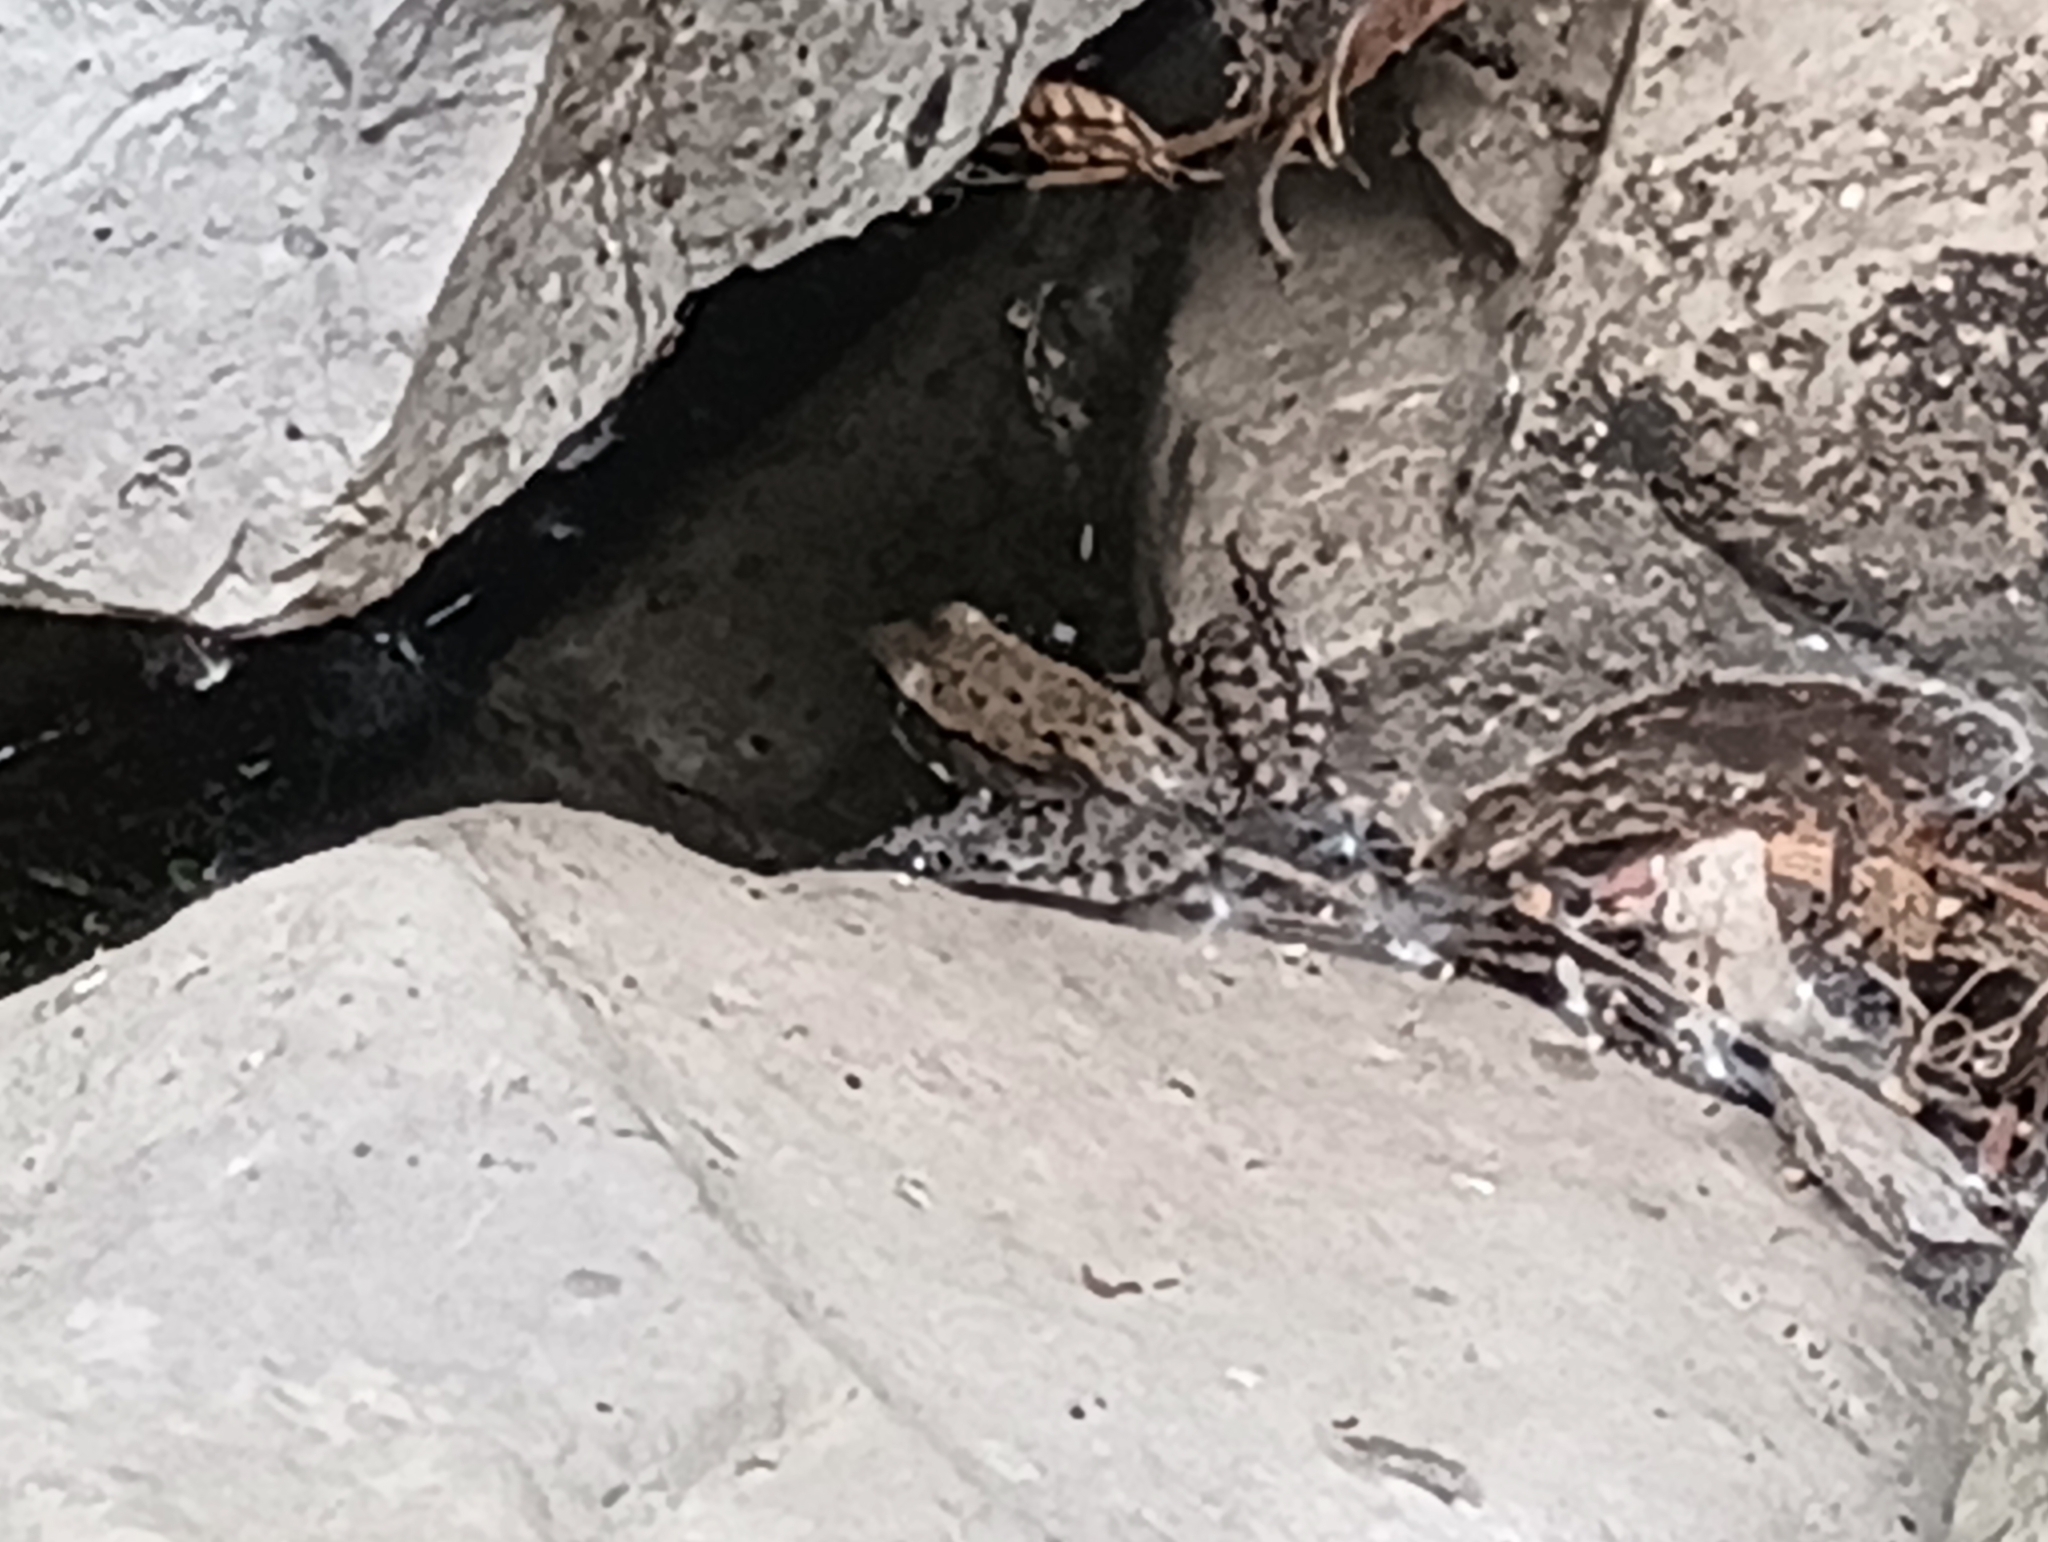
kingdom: Animalia
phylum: Chordata
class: Amphibia
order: Anura
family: Ranidae
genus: Lithobates
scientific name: Lithobates clamitans
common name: Green frog
